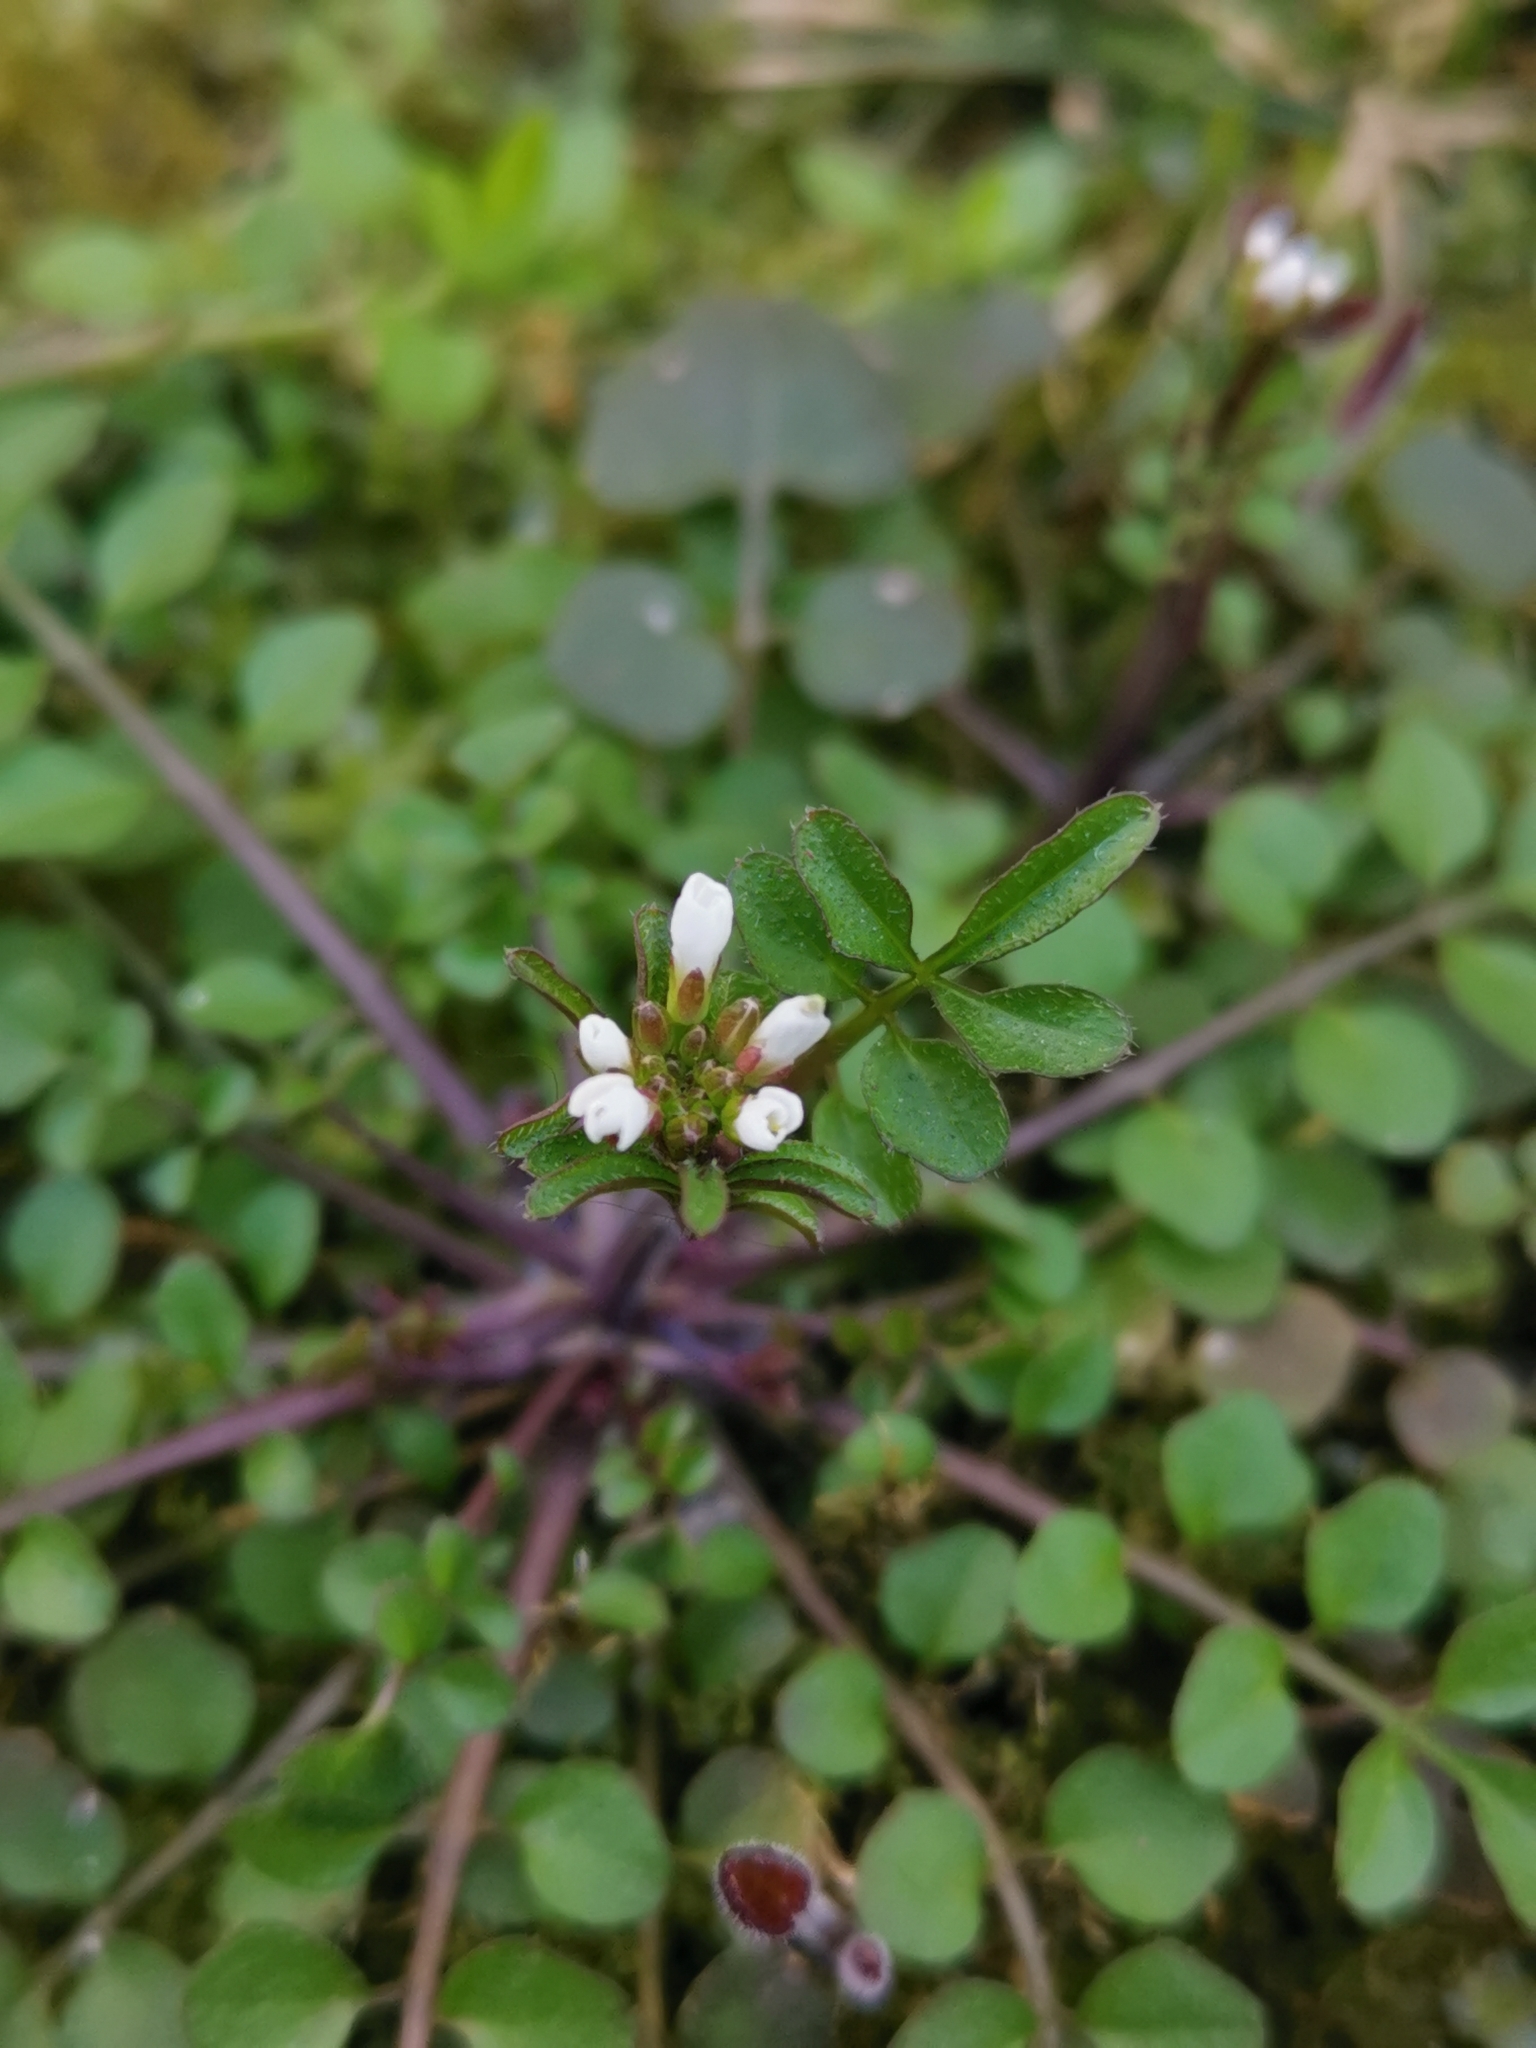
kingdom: Plantae
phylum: Tracheophyta
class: Magnoliopsida
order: Brassicales
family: Brassicaceae
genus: Cardamine
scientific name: Cardamine hirsuta
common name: Hairy bittercress
